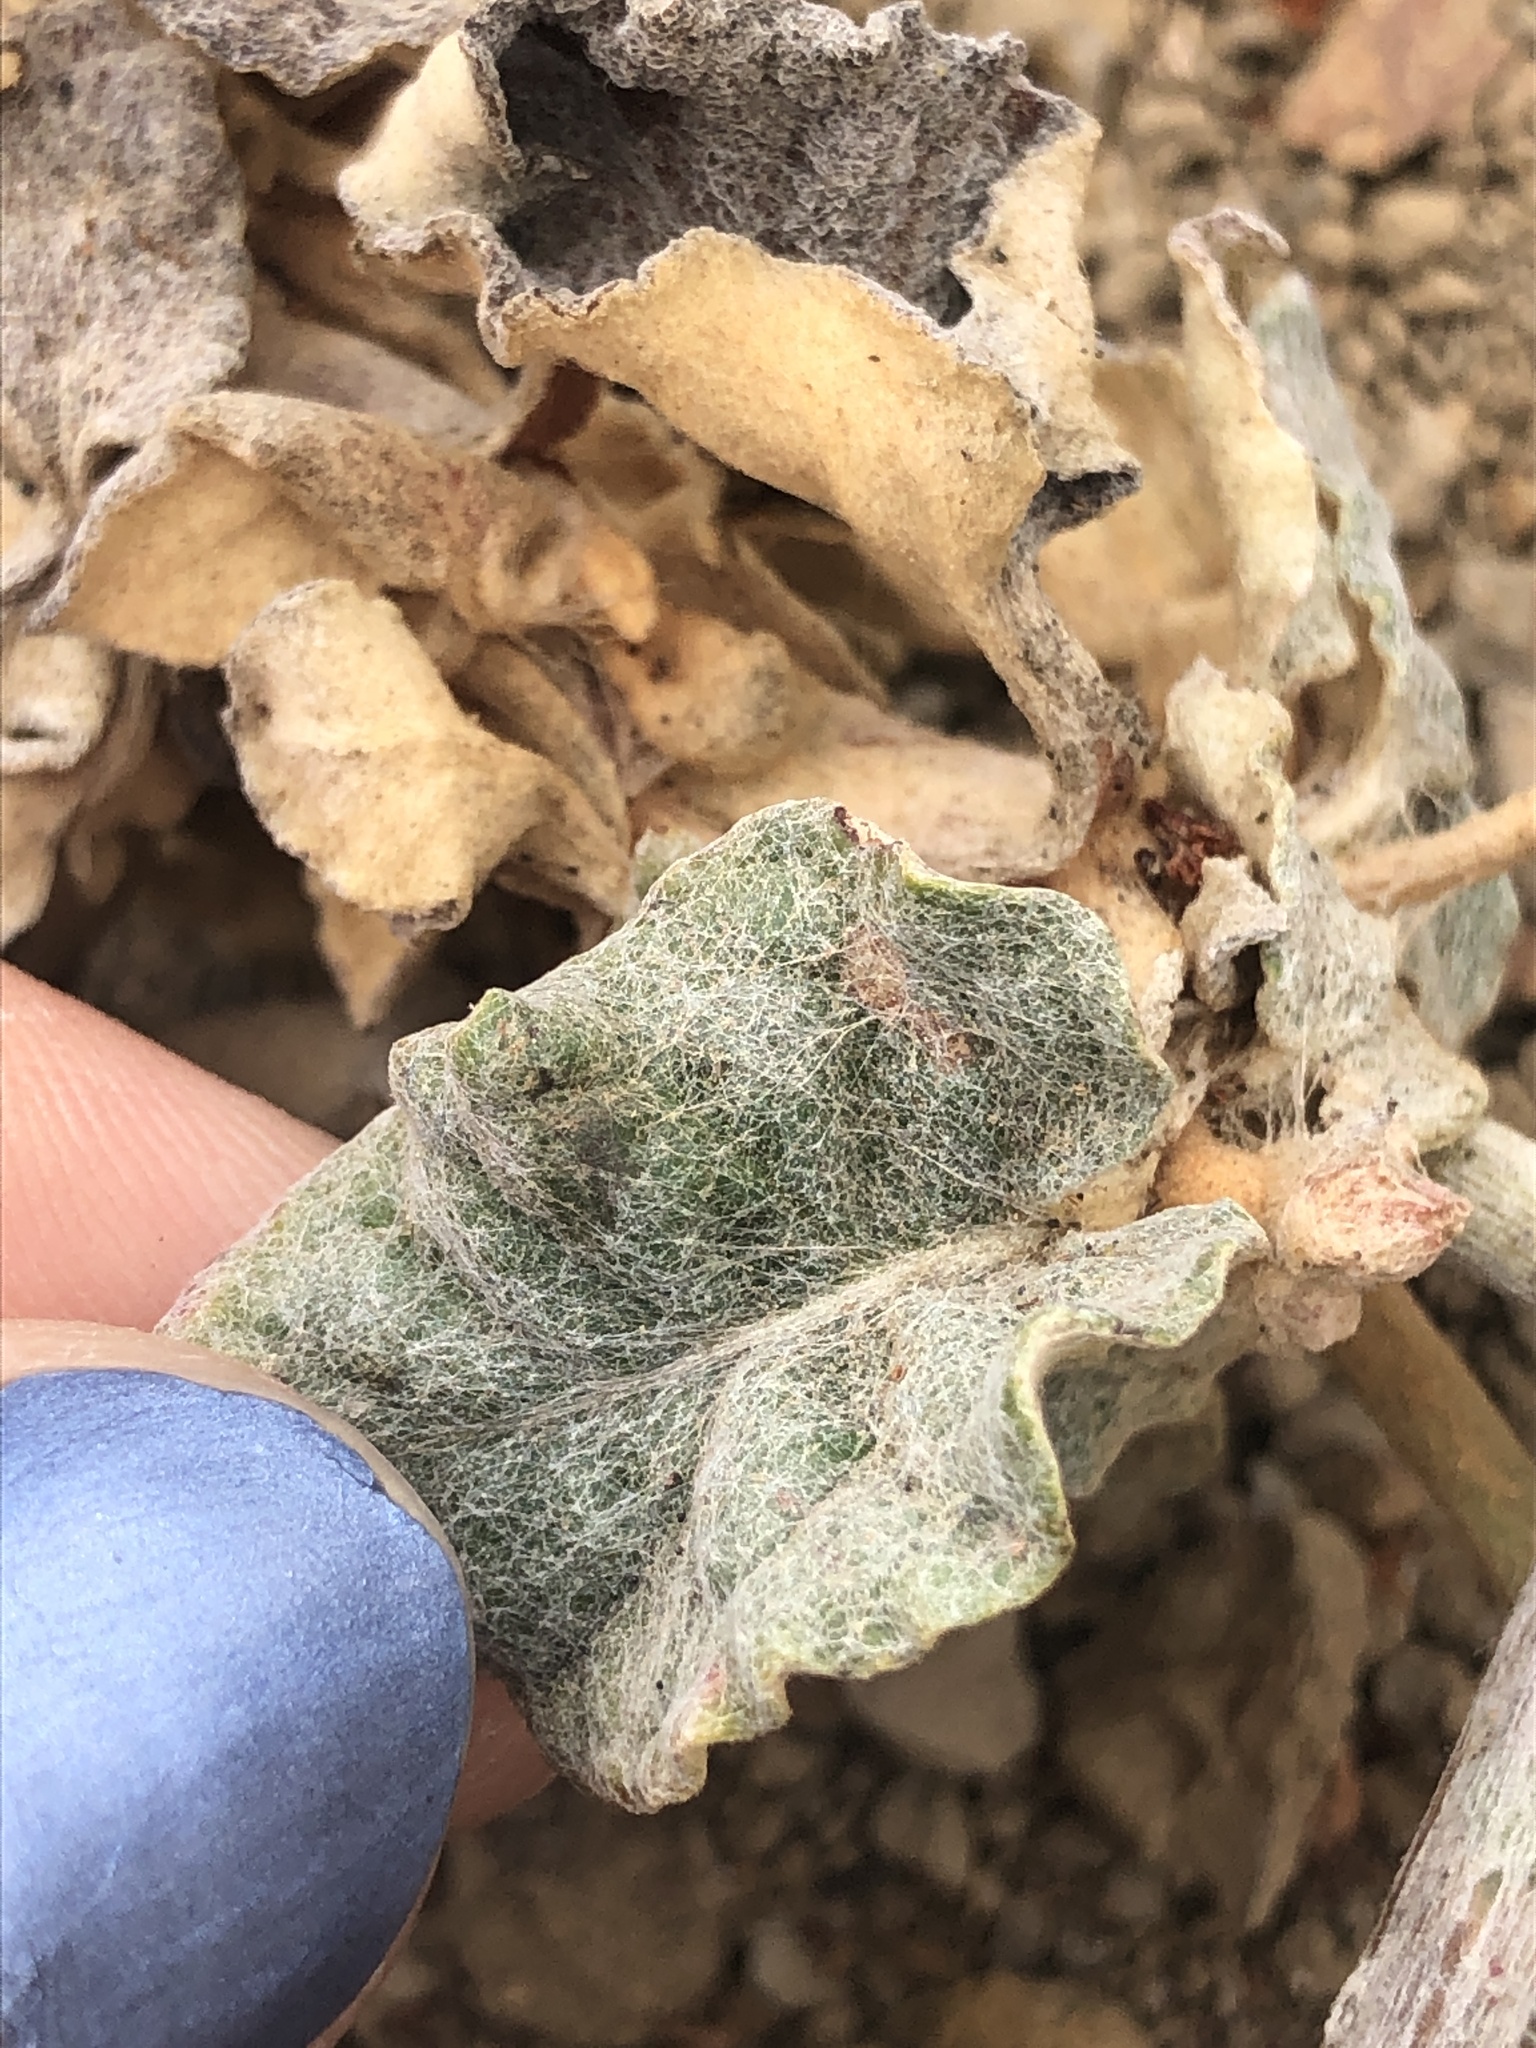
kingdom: Plantae
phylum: Tracheophyta
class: Magnoliopsida
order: Caryophyllales
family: Polygonaceae
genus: Eriogonum
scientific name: Eriogonum latifolium
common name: Seaside wild buckwheat
